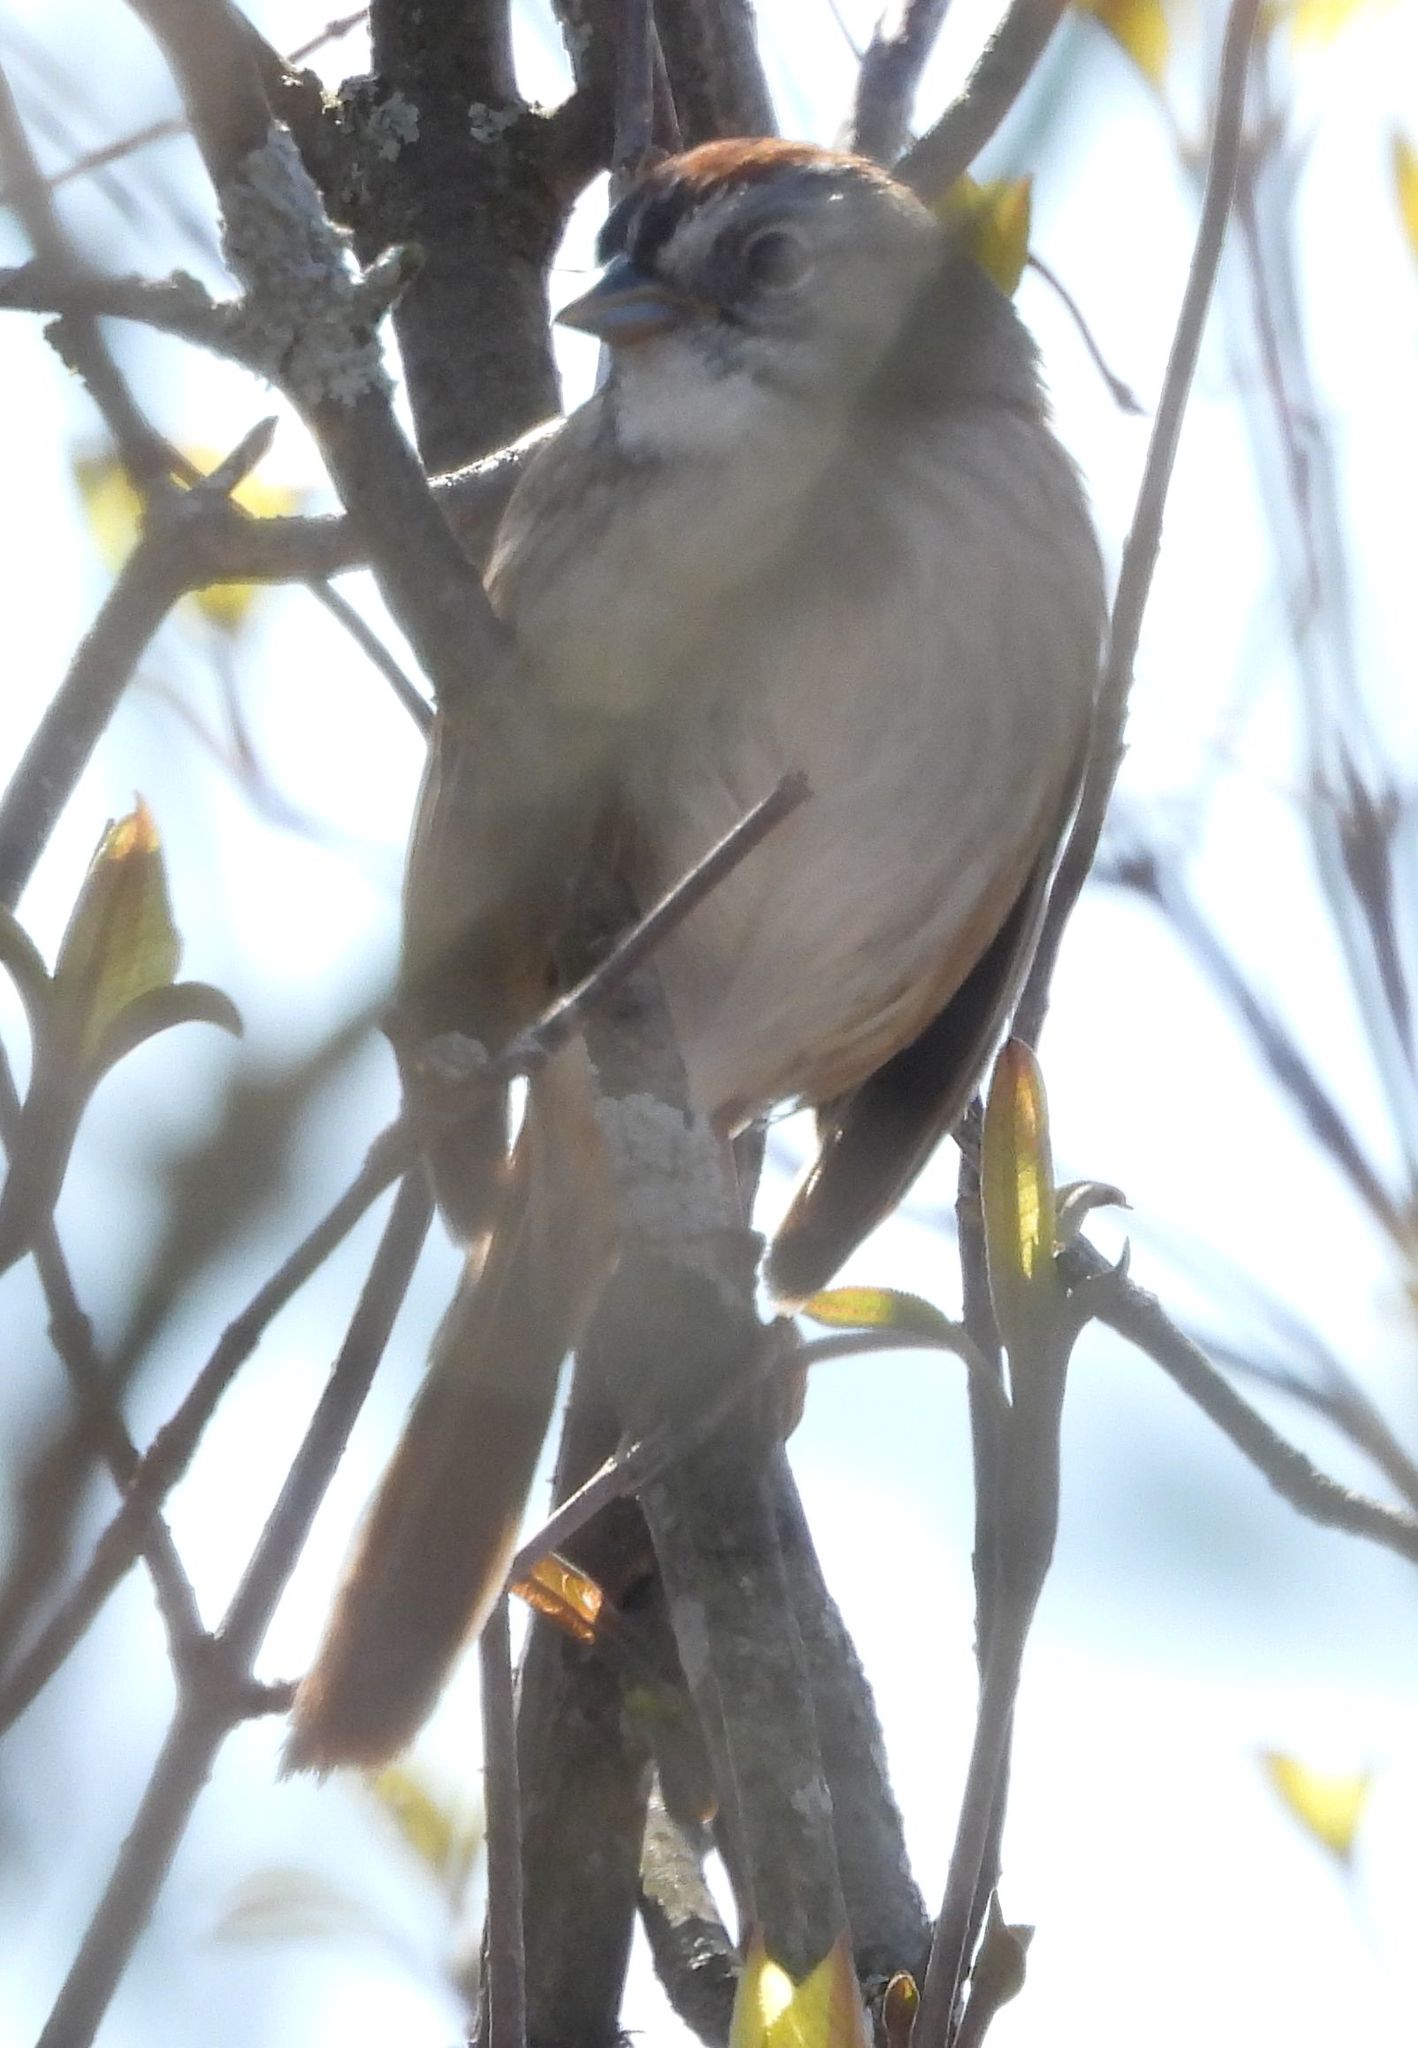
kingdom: Animalia
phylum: Chordata
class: Aves
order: Passeriformes
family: Passerellidae
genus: Melospiza
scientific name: Melospiza georgiana
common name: Swamp sparrow
